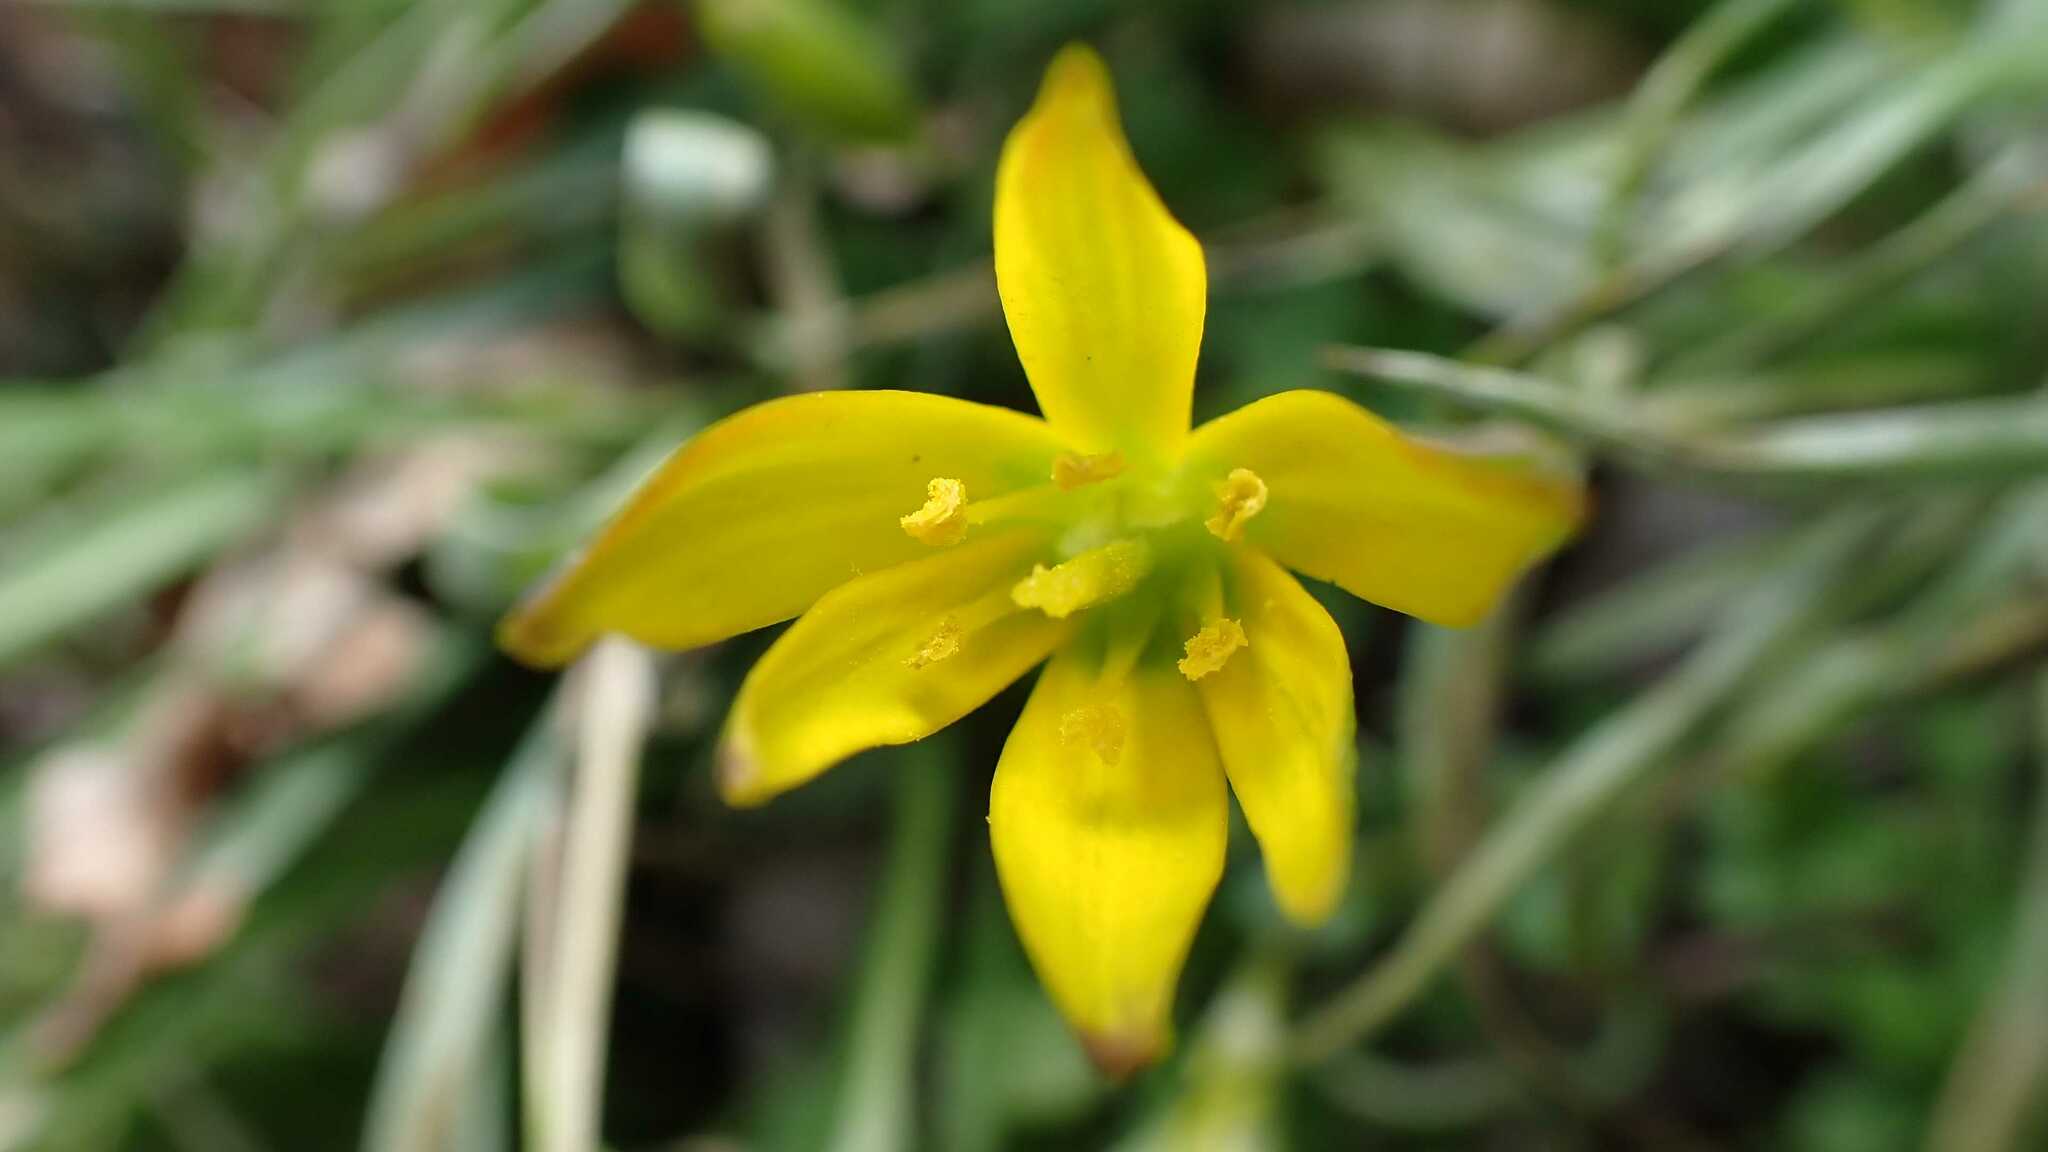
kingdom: Plantae
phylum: Tracheophyta
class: Liliopsida
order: Liliales
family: Liliaceae
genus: Gagea
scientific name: Gagea pratensis
